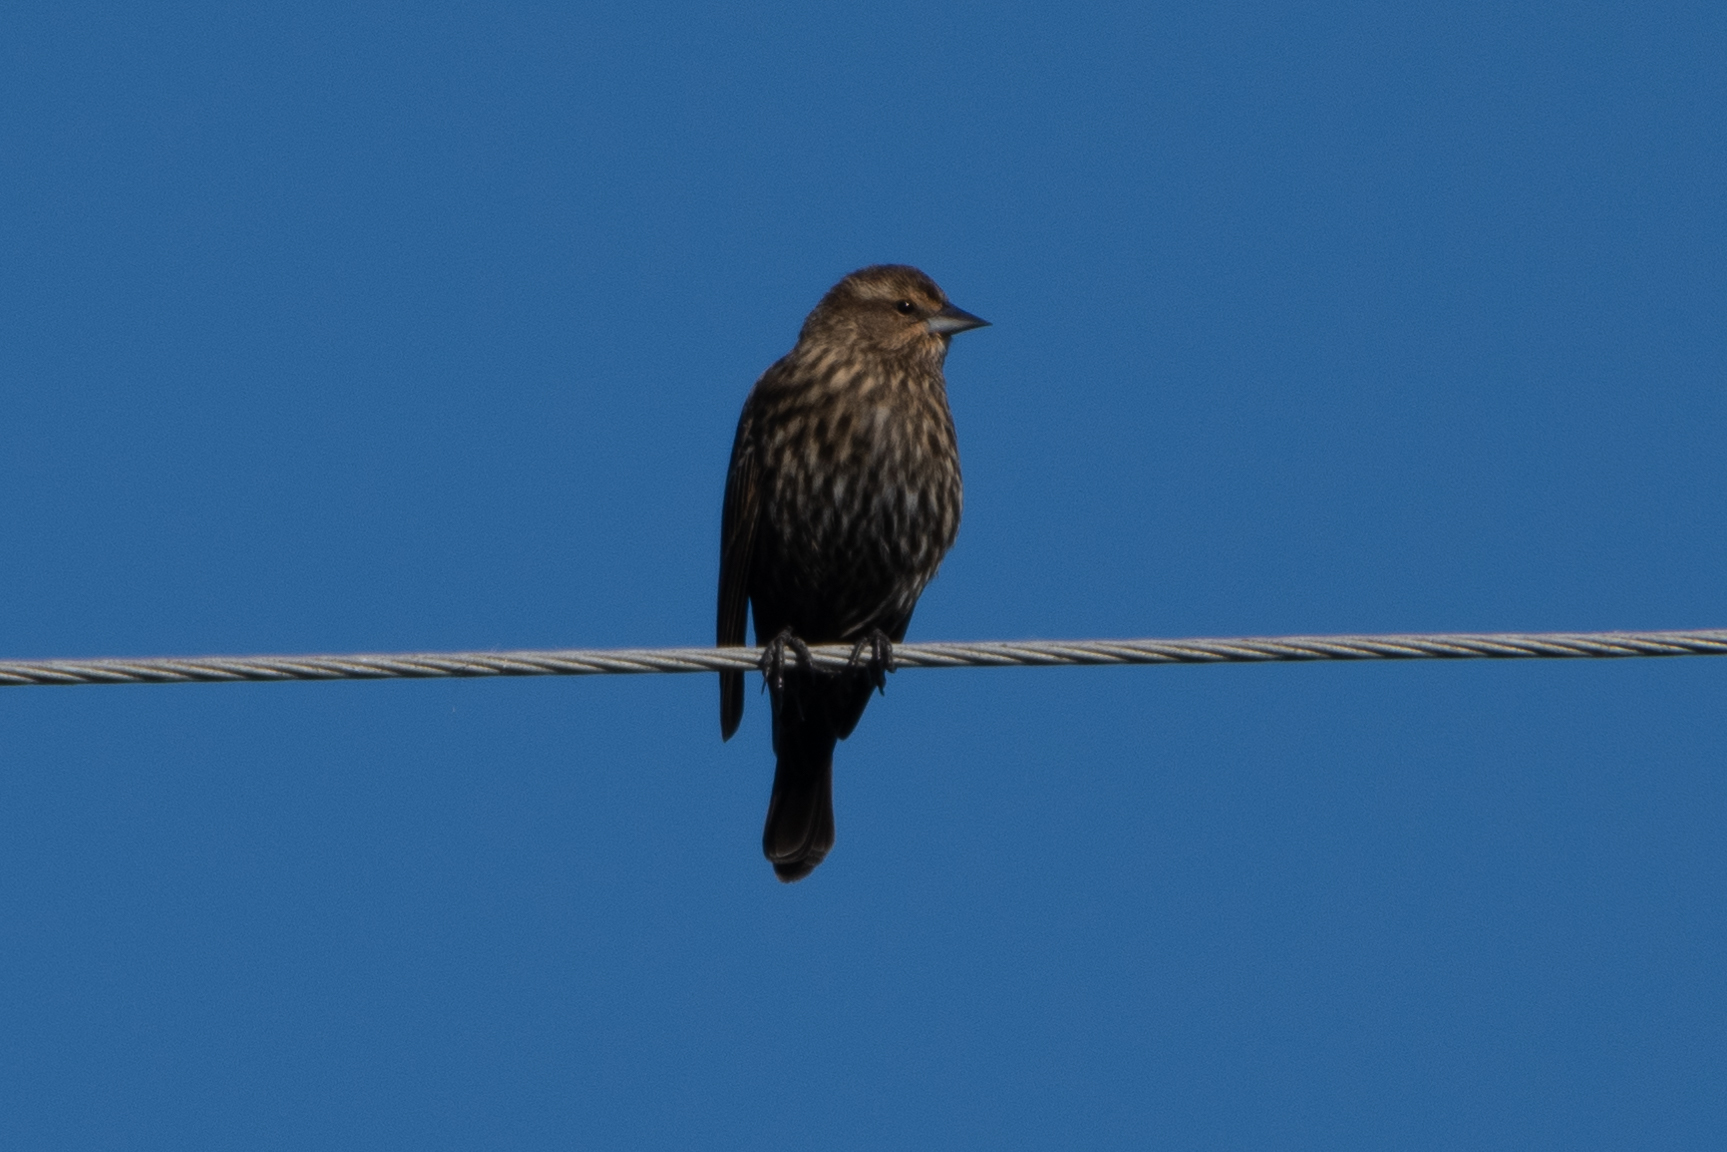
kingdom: Animalia
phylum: Chordata
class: Aves
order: Passeriformes
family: Icteridae
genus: Agelaius
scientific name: Agelaius phoeniceus
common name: Red-winged blackbird
